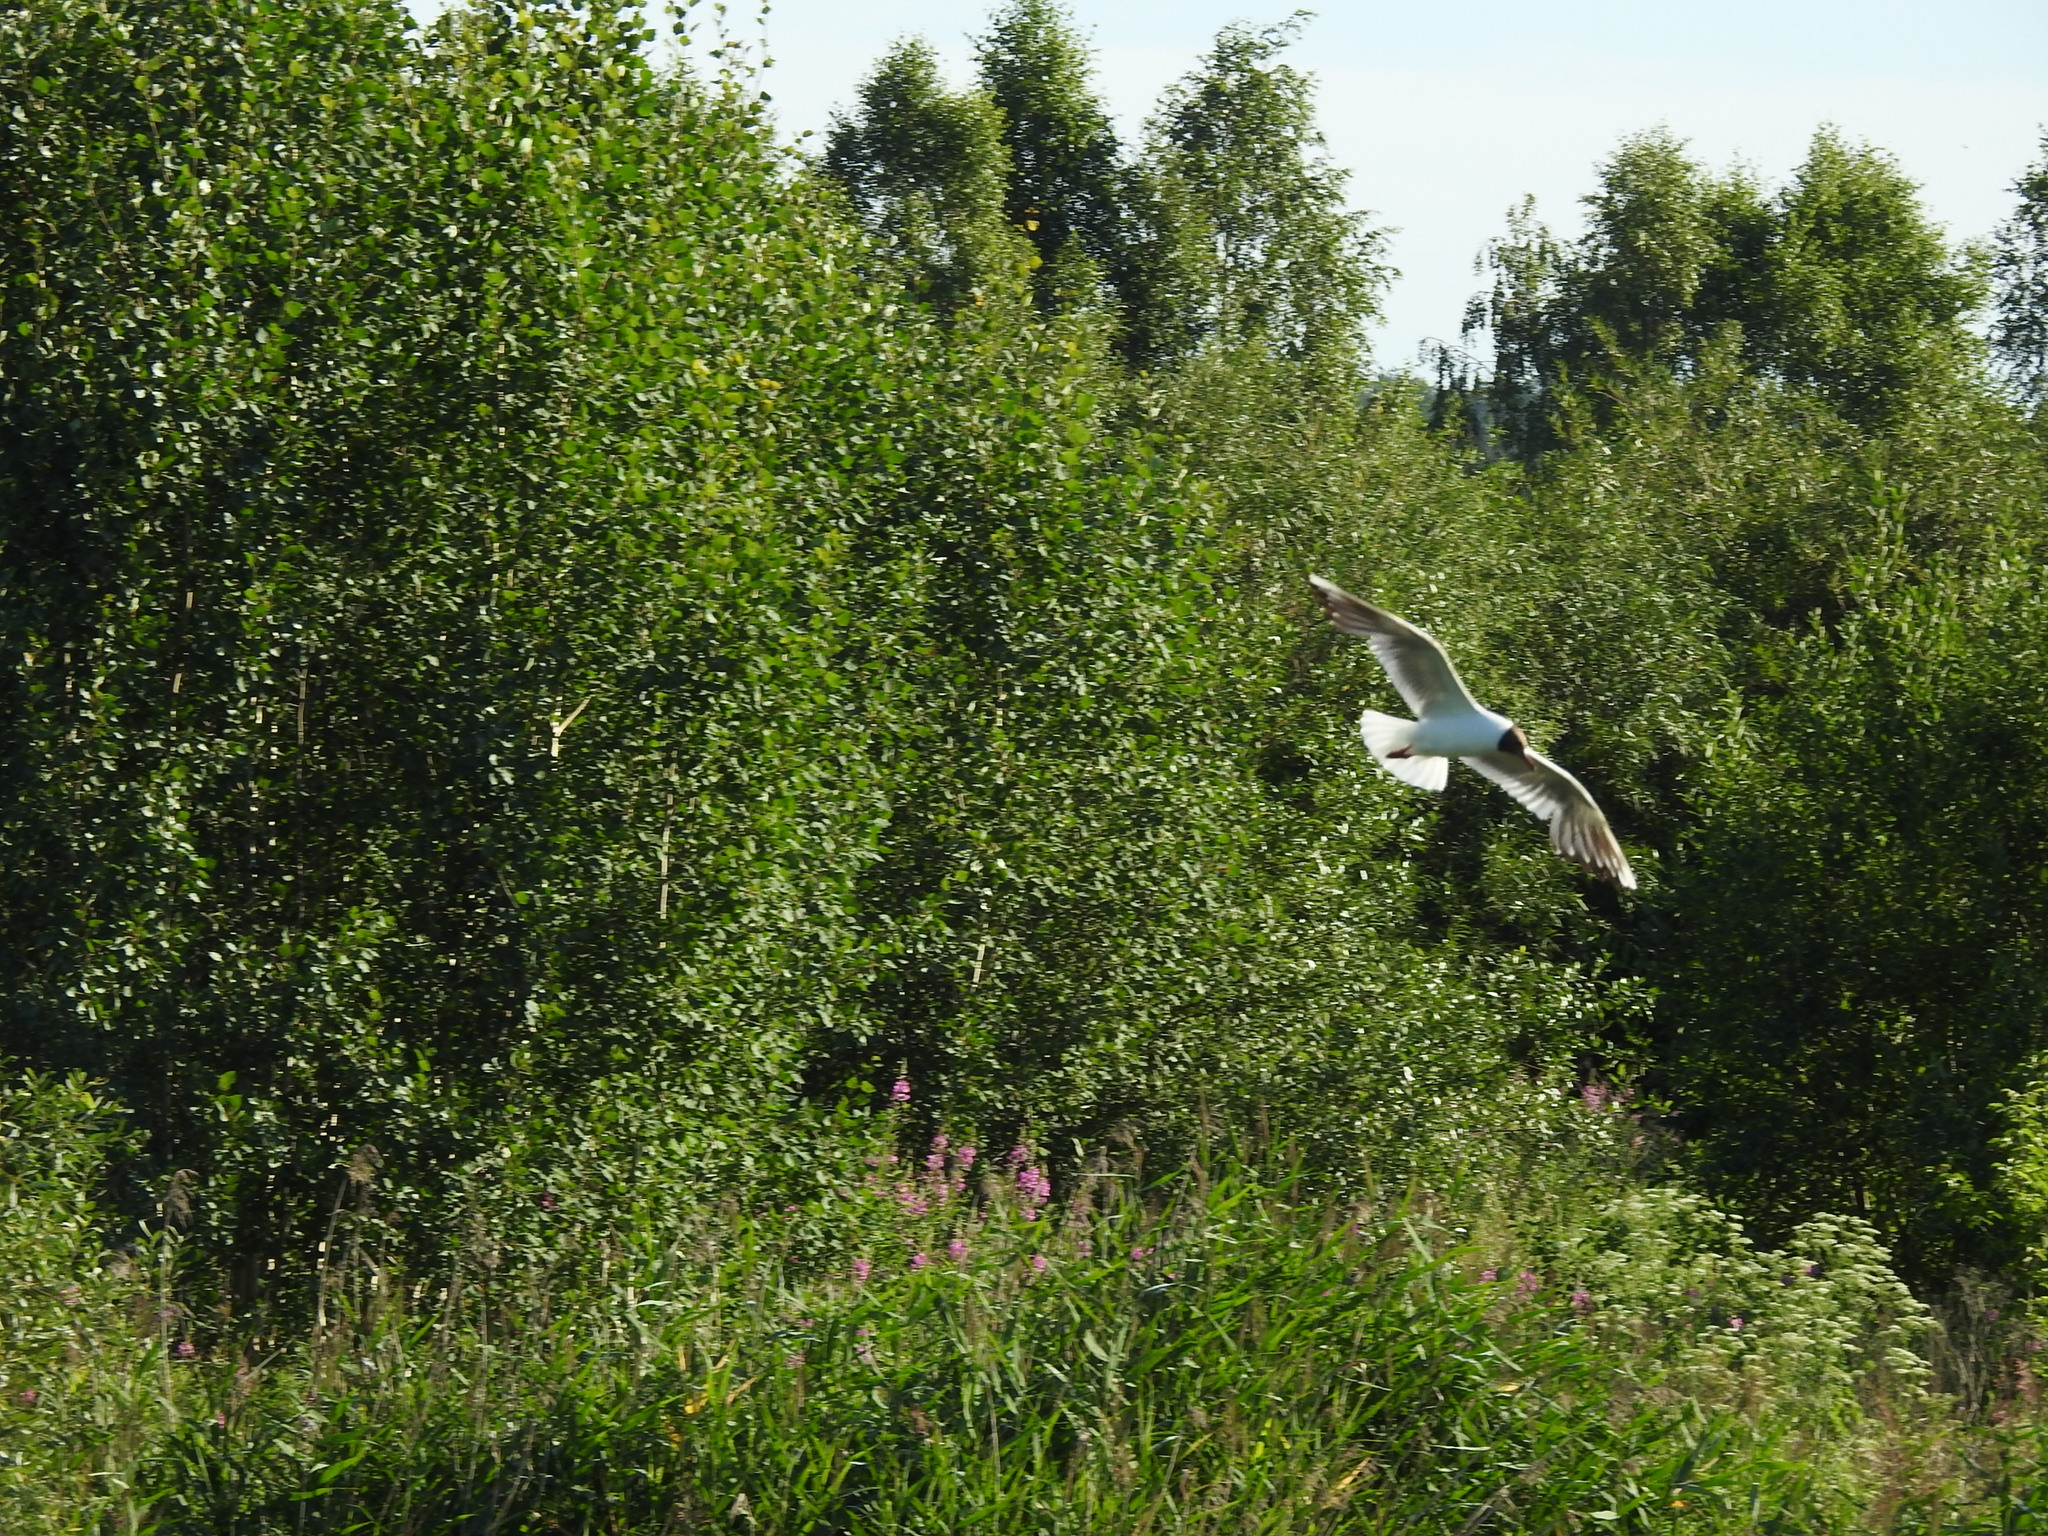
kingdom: Animalia
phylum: Chordata
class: Aves
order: Charadriiformes
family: Laridae
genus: Chroicocephalus
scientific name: Chroicocephalus ridibundus
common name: Black-headed gull
